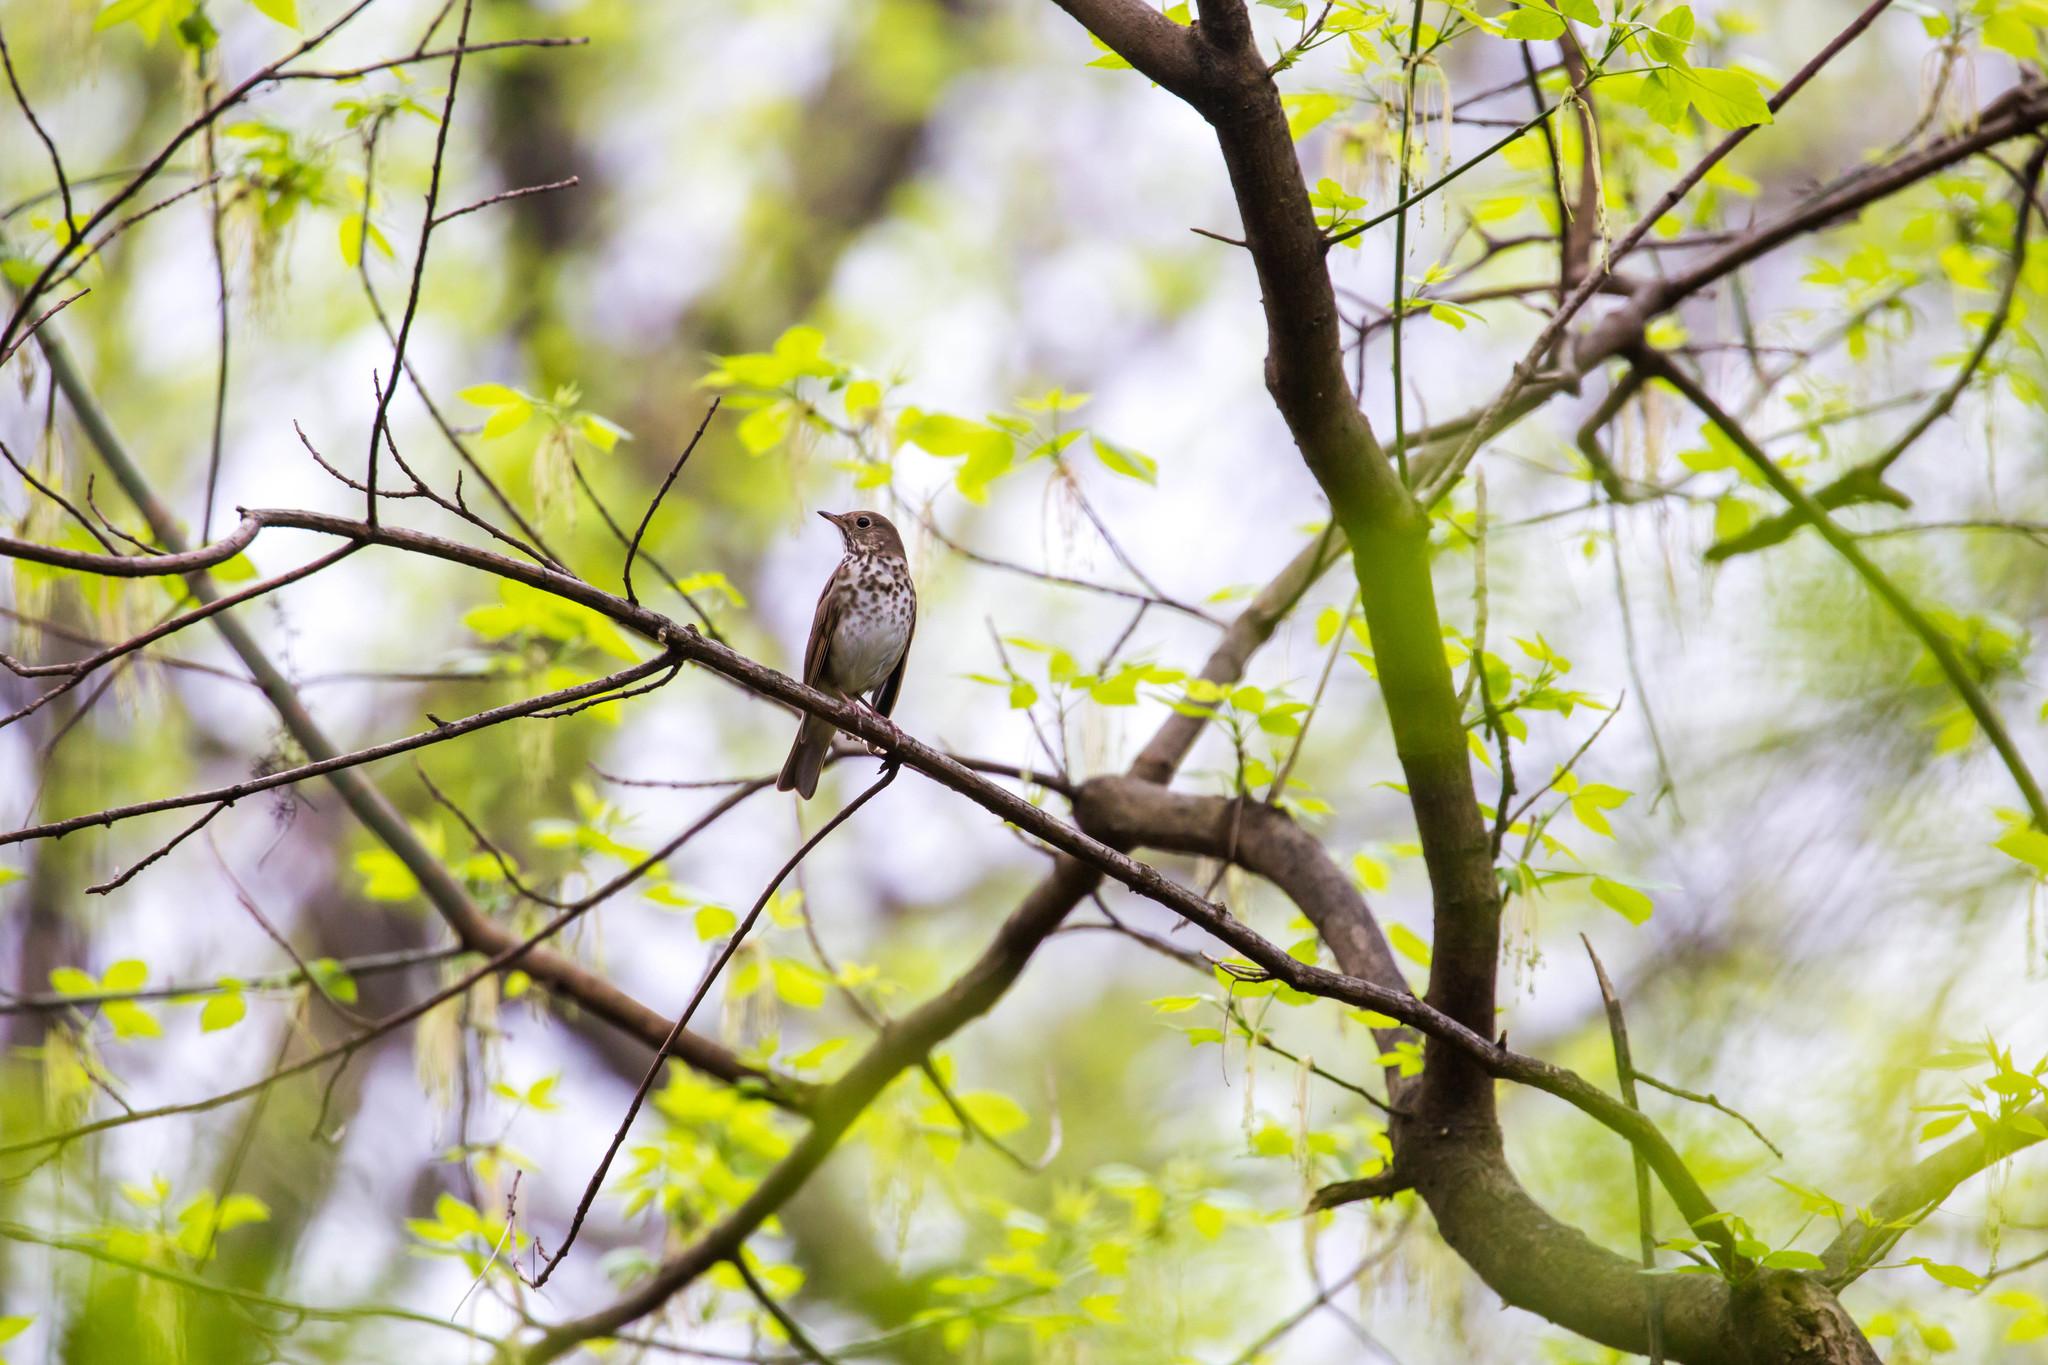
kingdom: Animalia
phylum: Chordata
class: Aves
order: Passeriformes
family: Turdidae
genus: Catharus
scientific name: Catharus guttatus
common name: Hermit thrush
